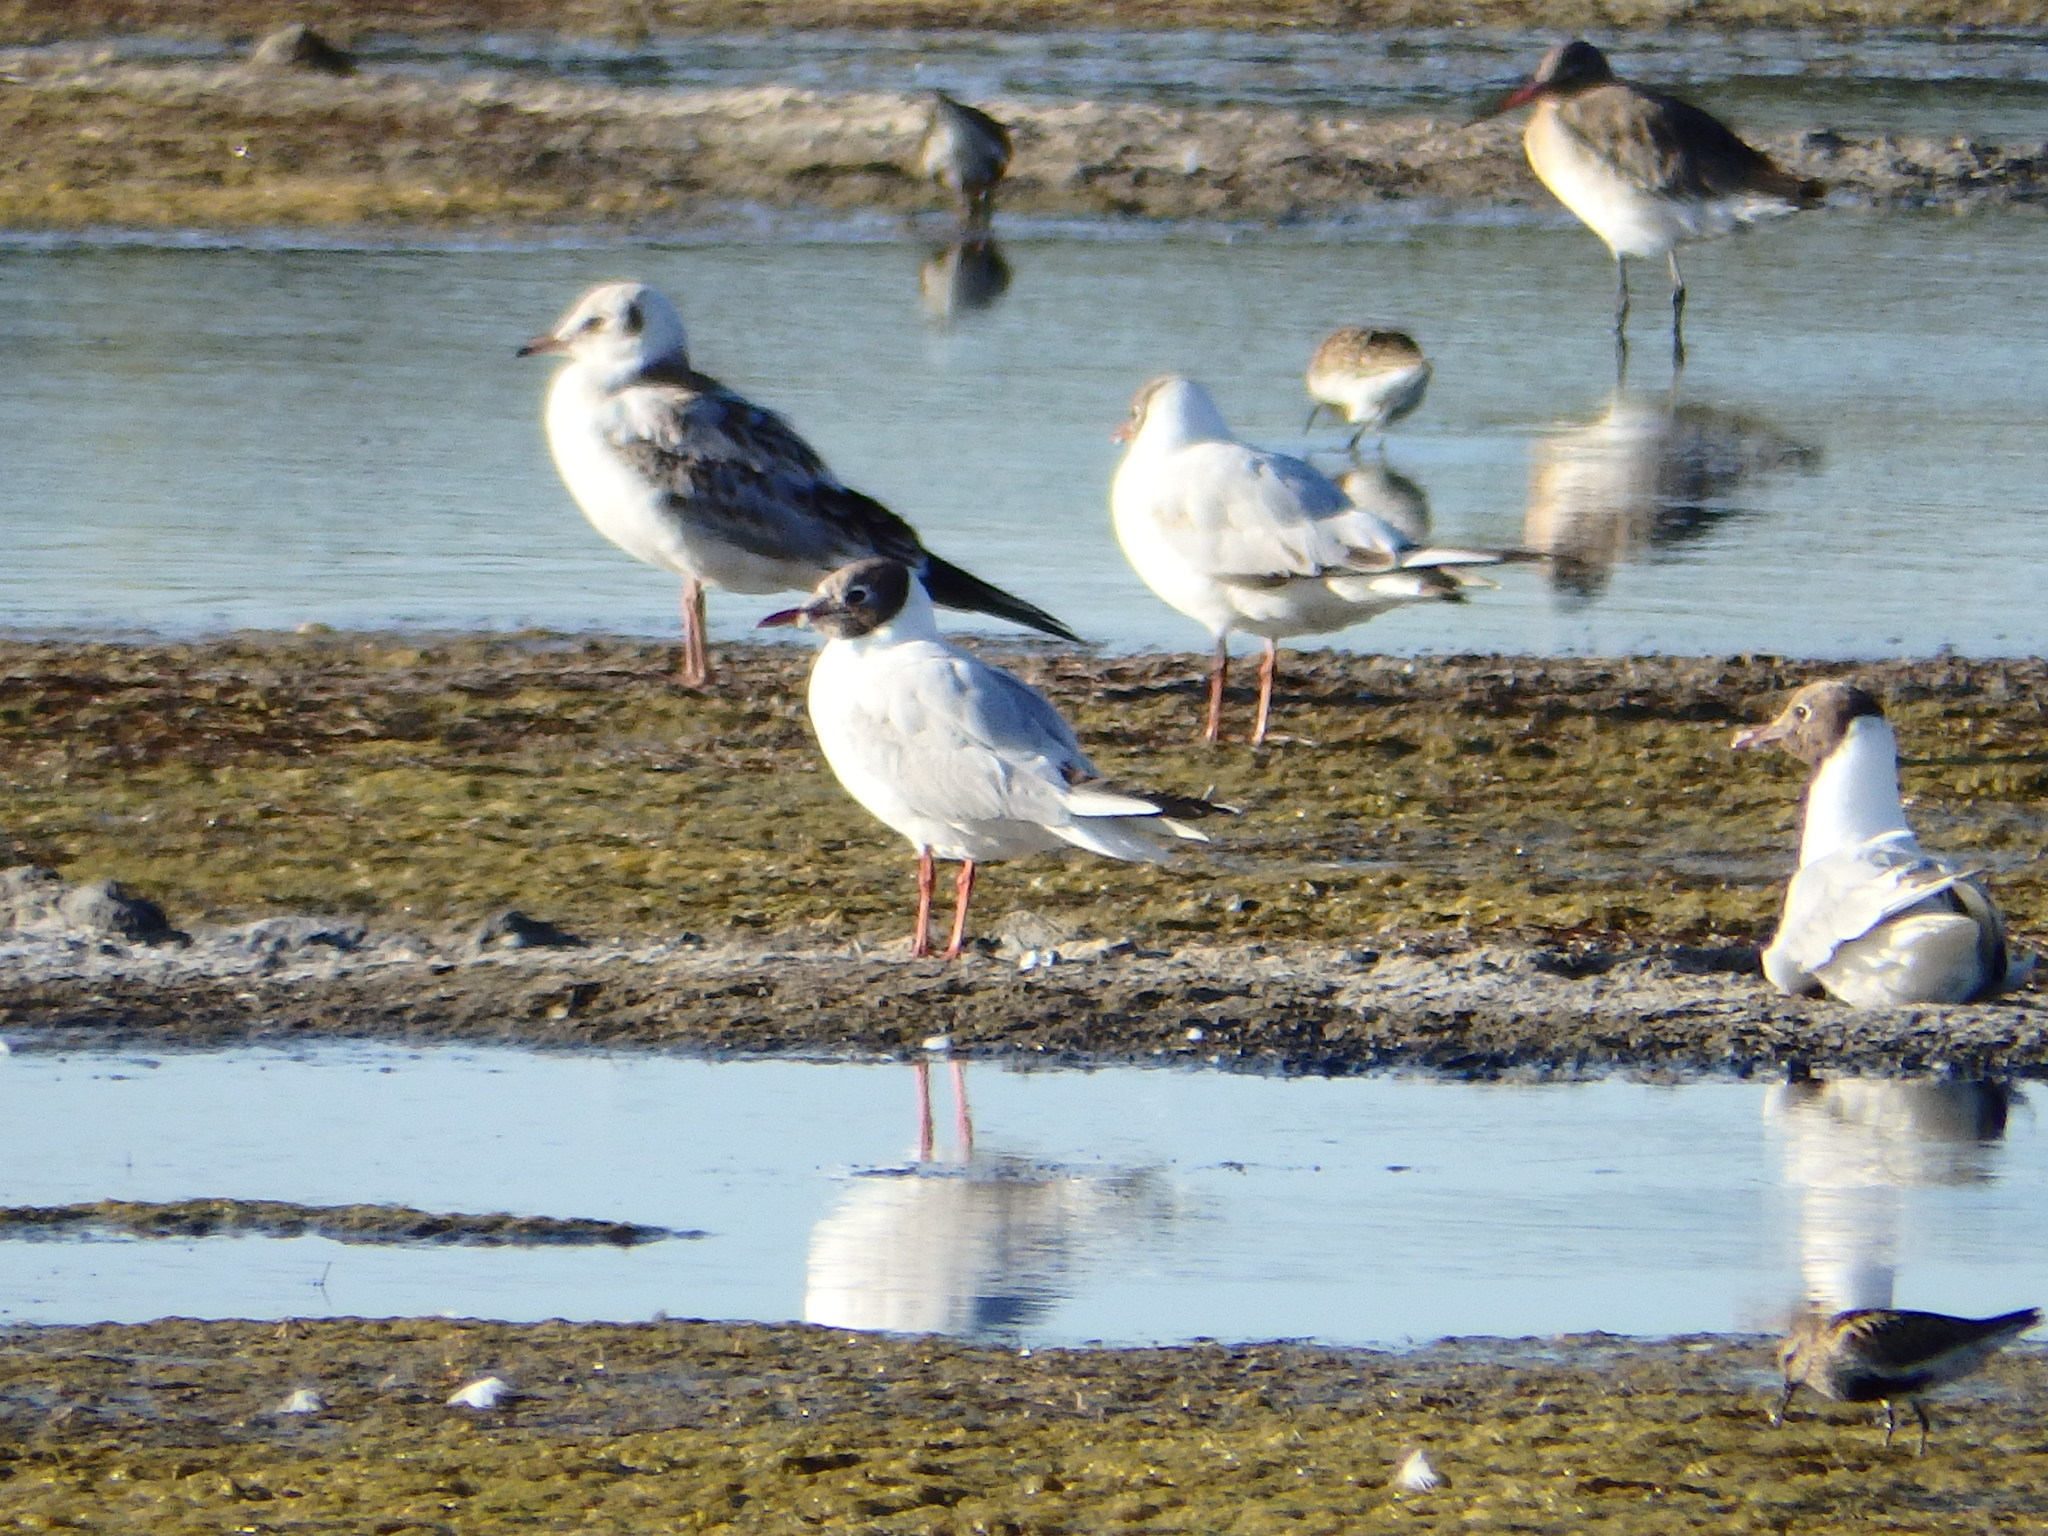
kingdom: Animalia
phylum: Chordata
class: Aves
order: Charadriiformes
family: Laridae
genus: Chroicocephalus
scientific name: Chroicocephalus ridibundus
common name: Black-headed gull
